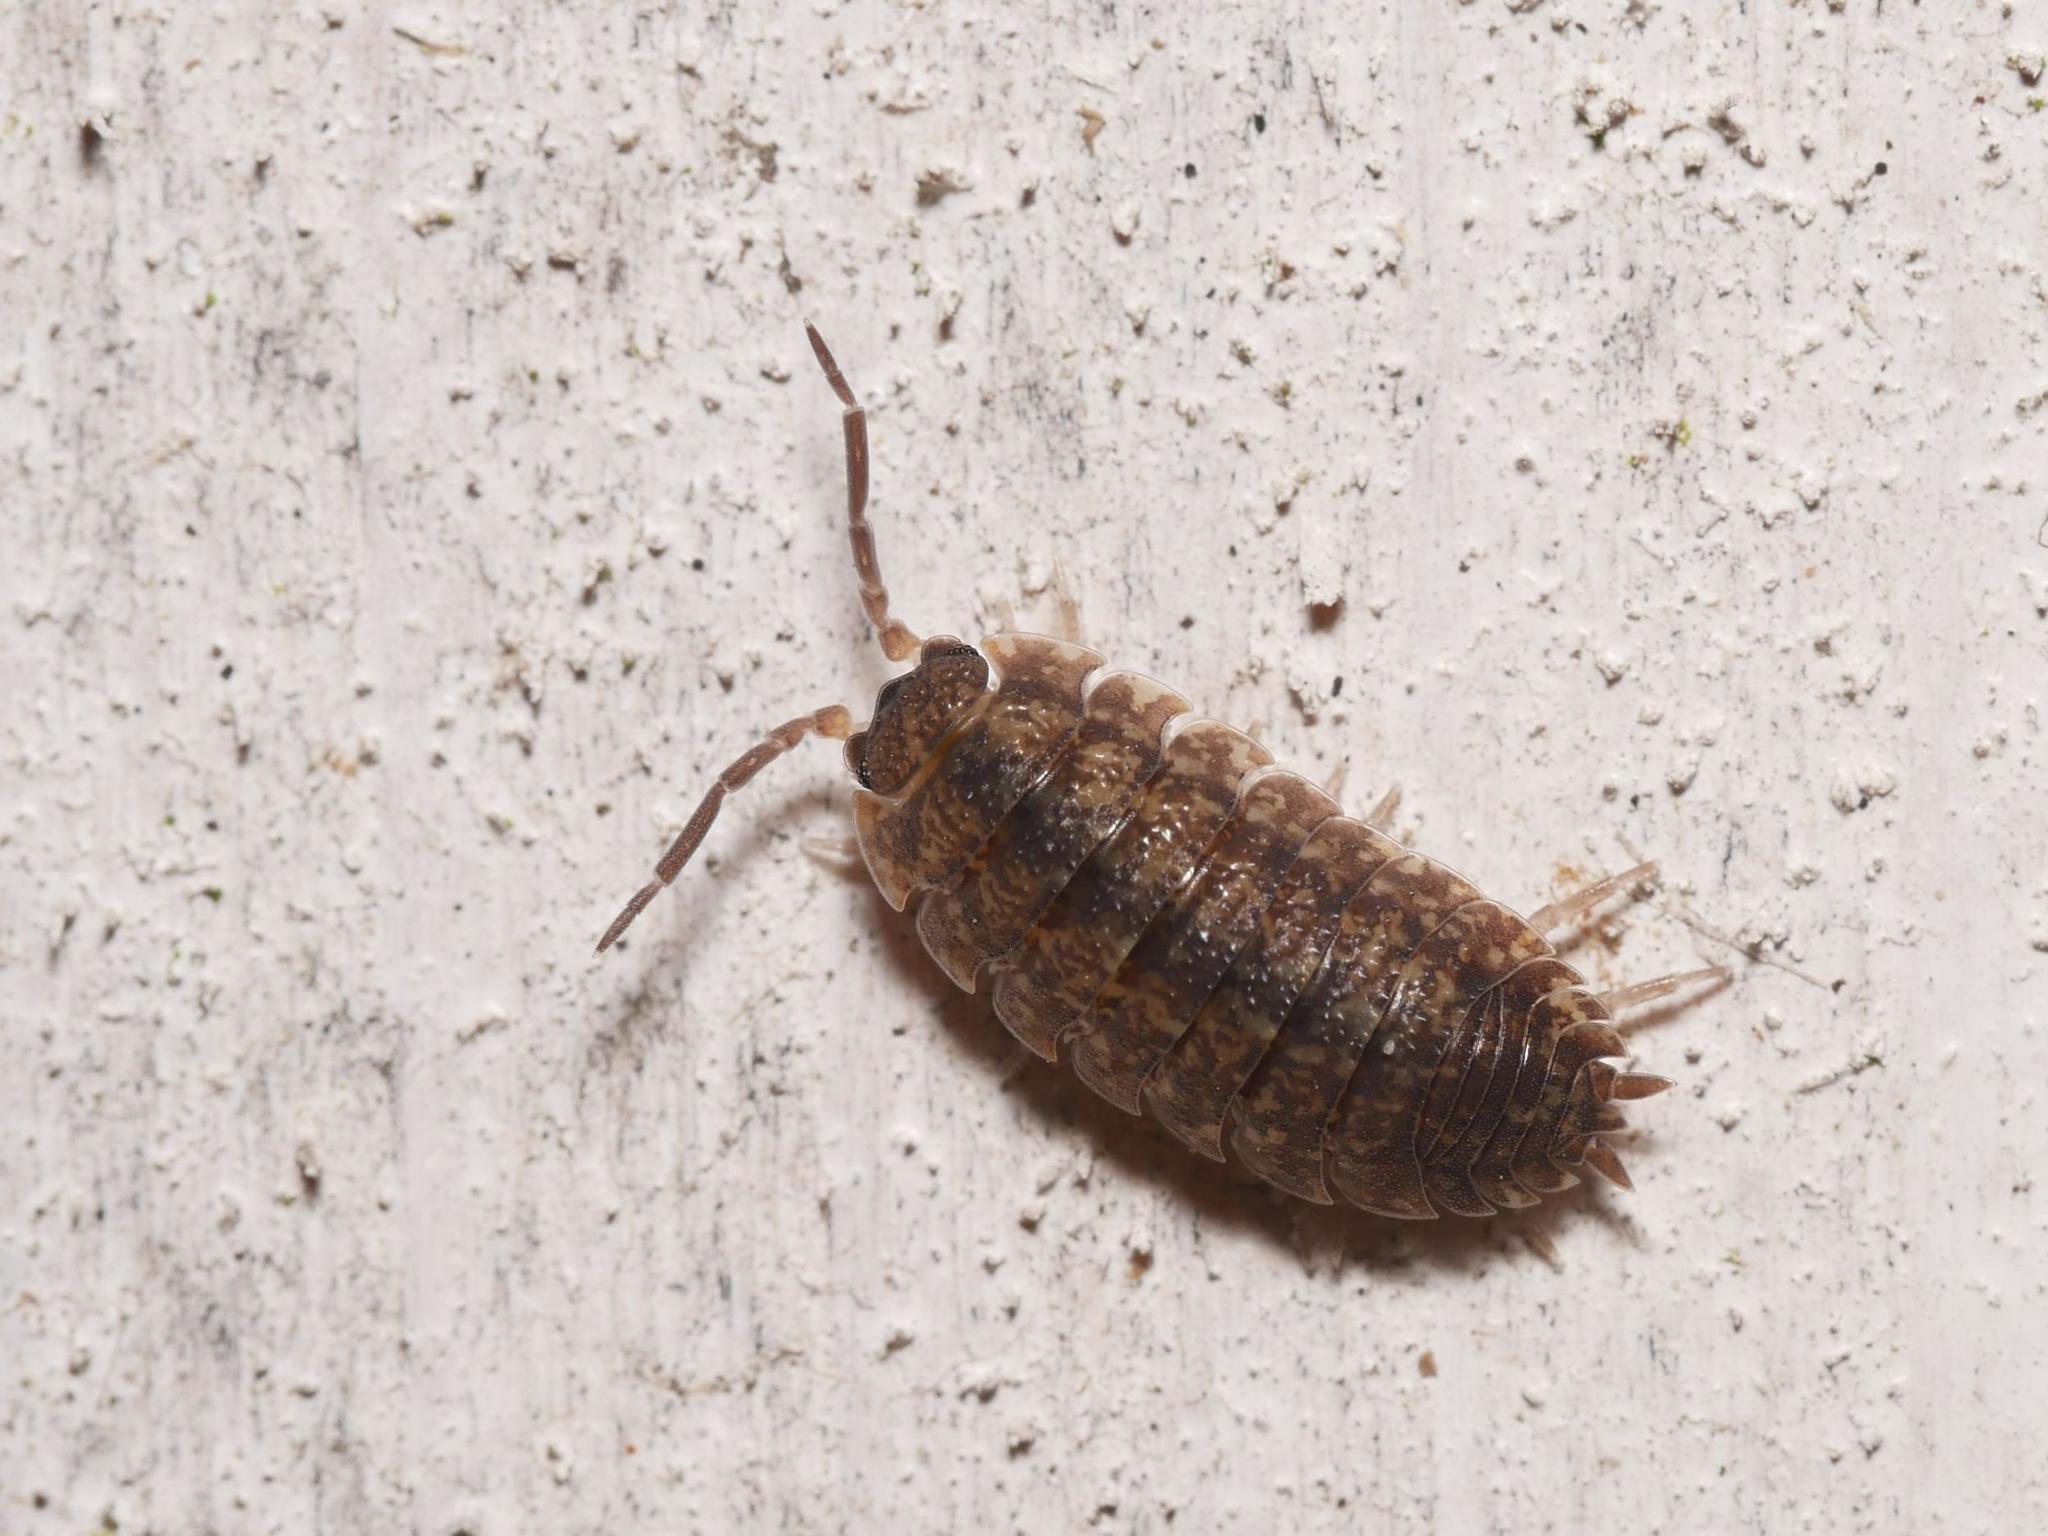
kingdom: Animalia
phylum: Arthropoda
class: Malacostraca
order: Isopoda
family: Porcellionidae
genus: Porcellio
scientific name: Porcellio scaber
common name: Common rough woodlouse
